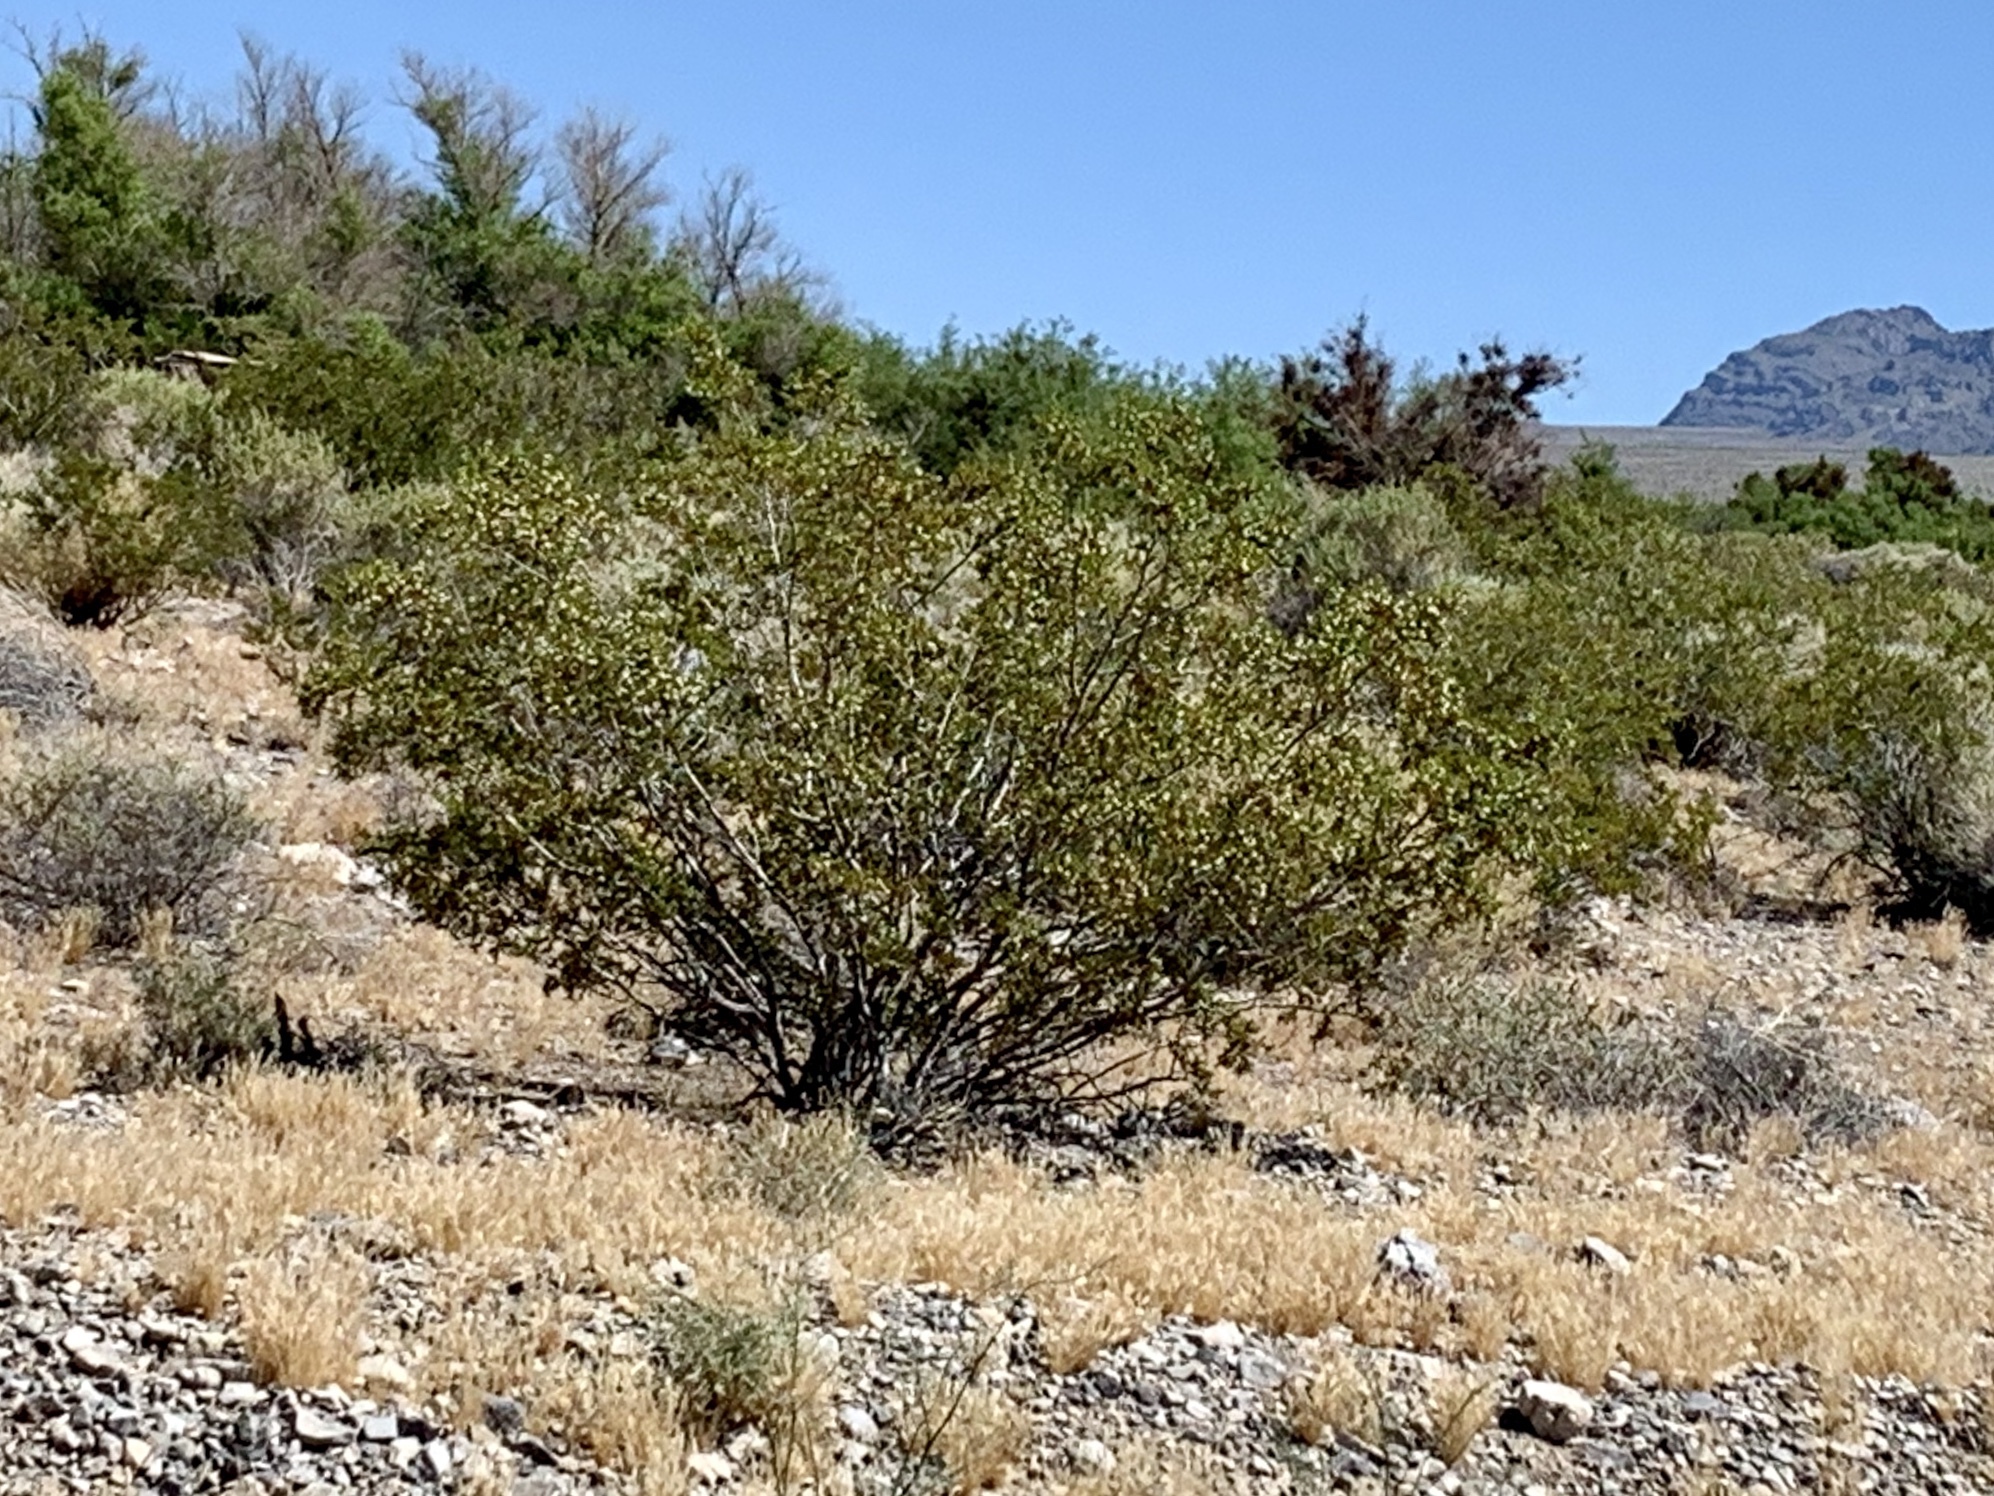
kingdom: Plantae
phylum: Tracheophyta
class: Magnoliopsida
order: Zygophyllales
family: Zygophyllaceae
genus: Larrea
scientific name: Larrea tridentata
